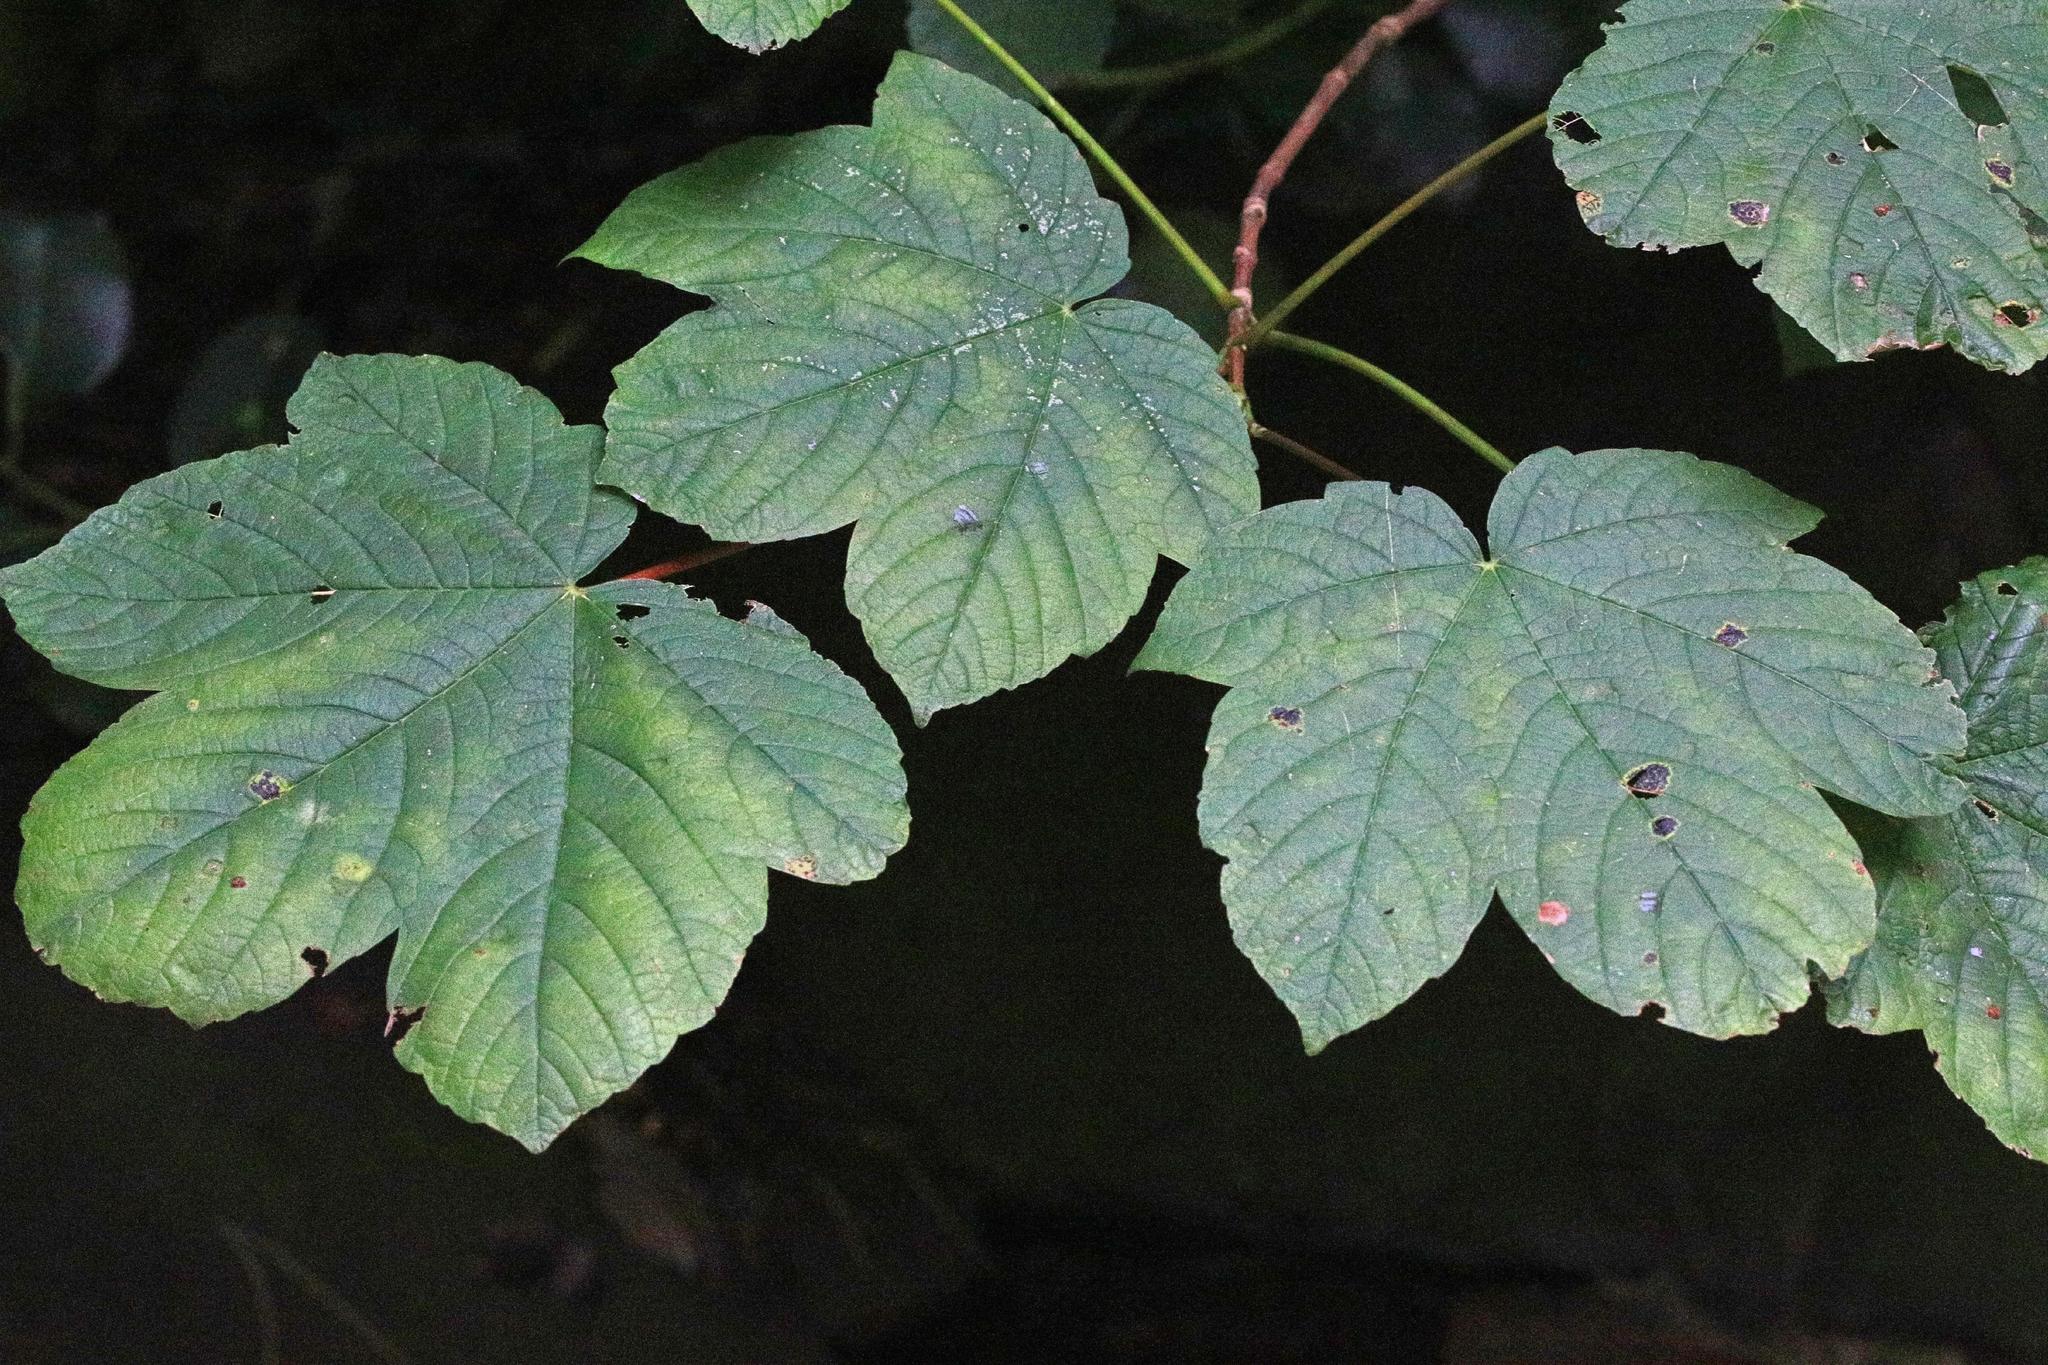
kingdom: Plantae
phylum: Tracheophyta
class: Magnoliopsida
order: Sapindales
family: Sapindaceae
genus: Acer
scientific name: Acer pseudoplatanus
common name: Sycamore
